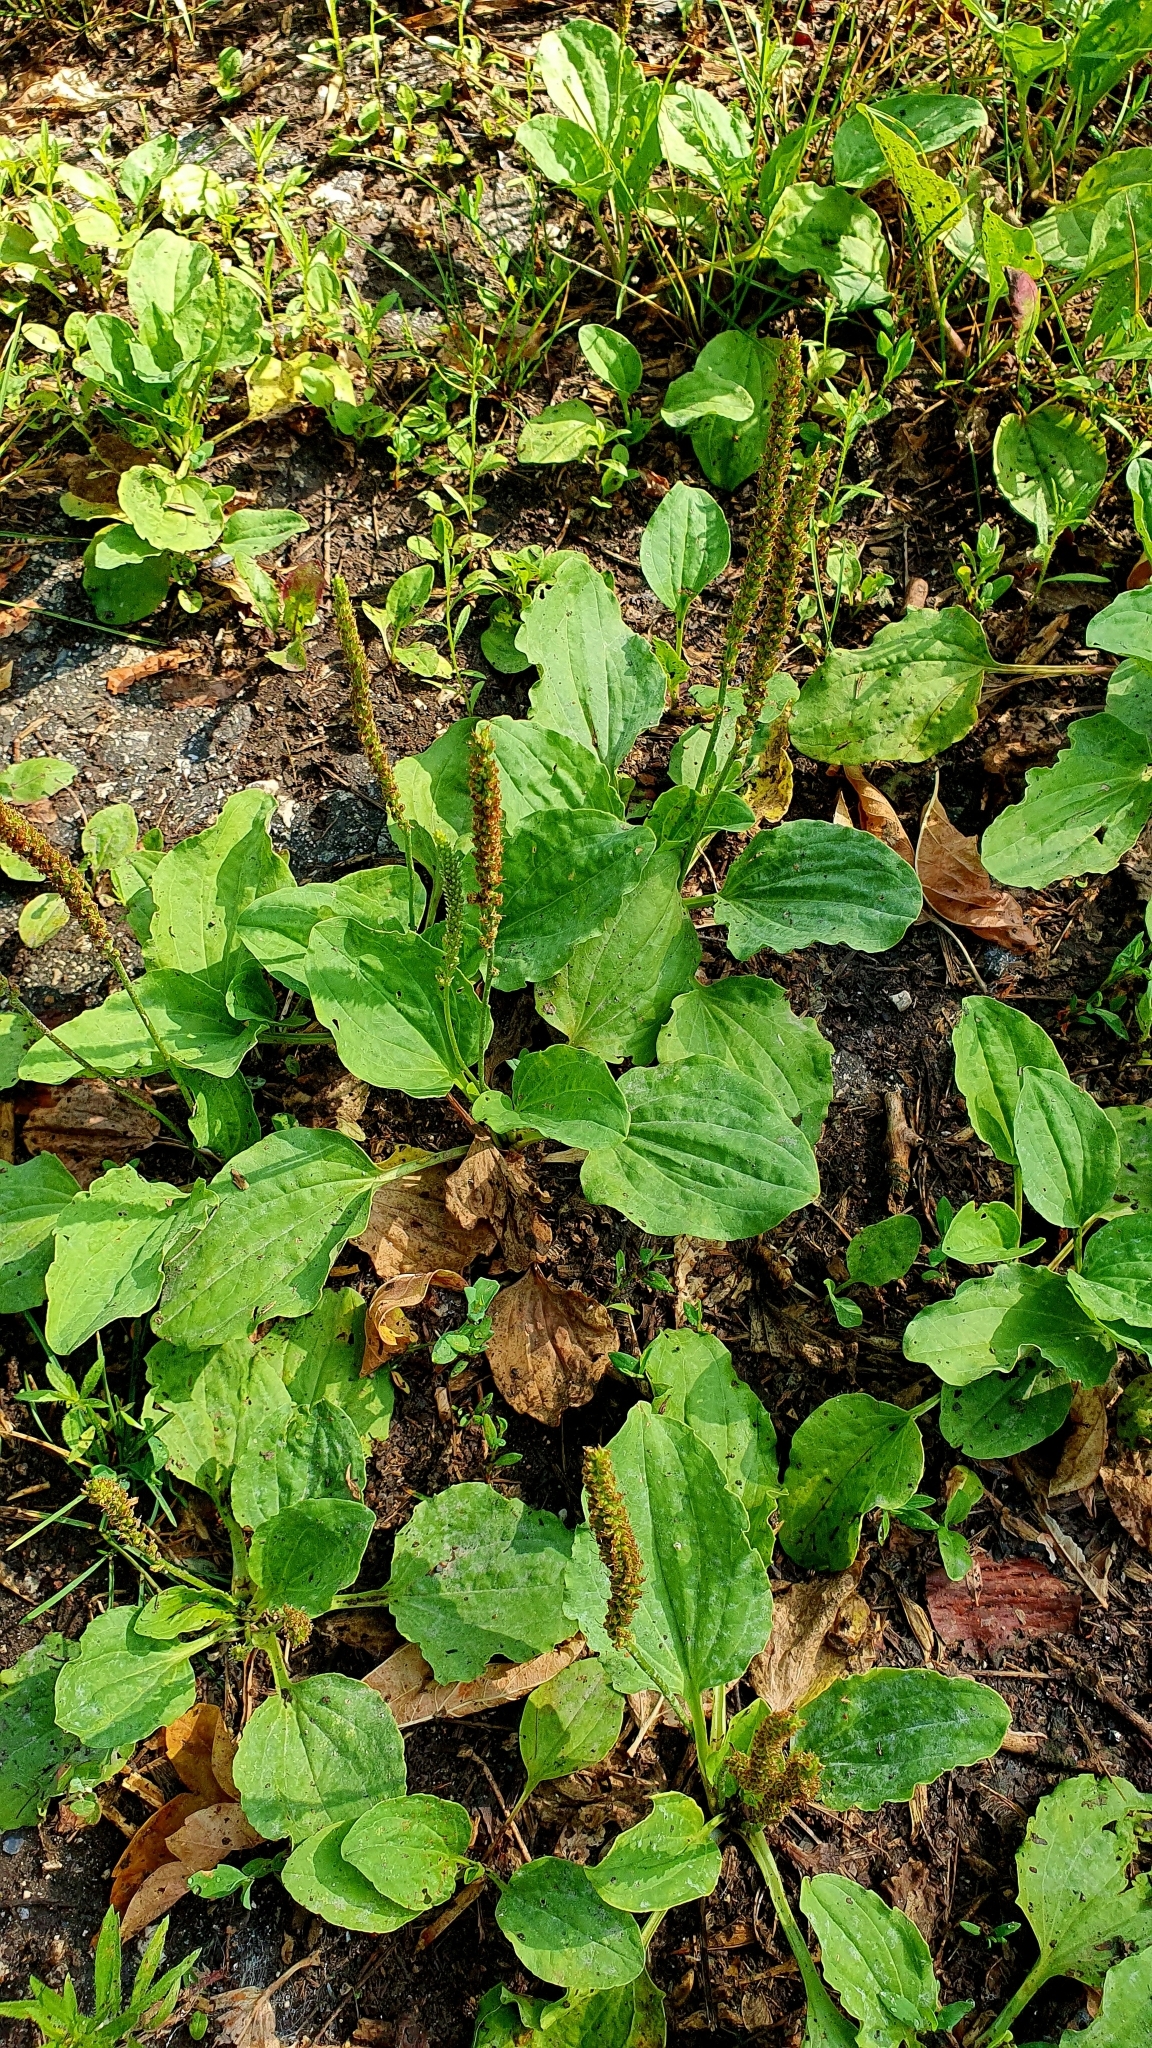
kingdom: Plantae
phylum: Tracheophyta
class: Magnoliopsida
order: Lamiales
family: Plantaginaceae
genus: Plantago
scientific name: Plantago major
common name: Common plantain
